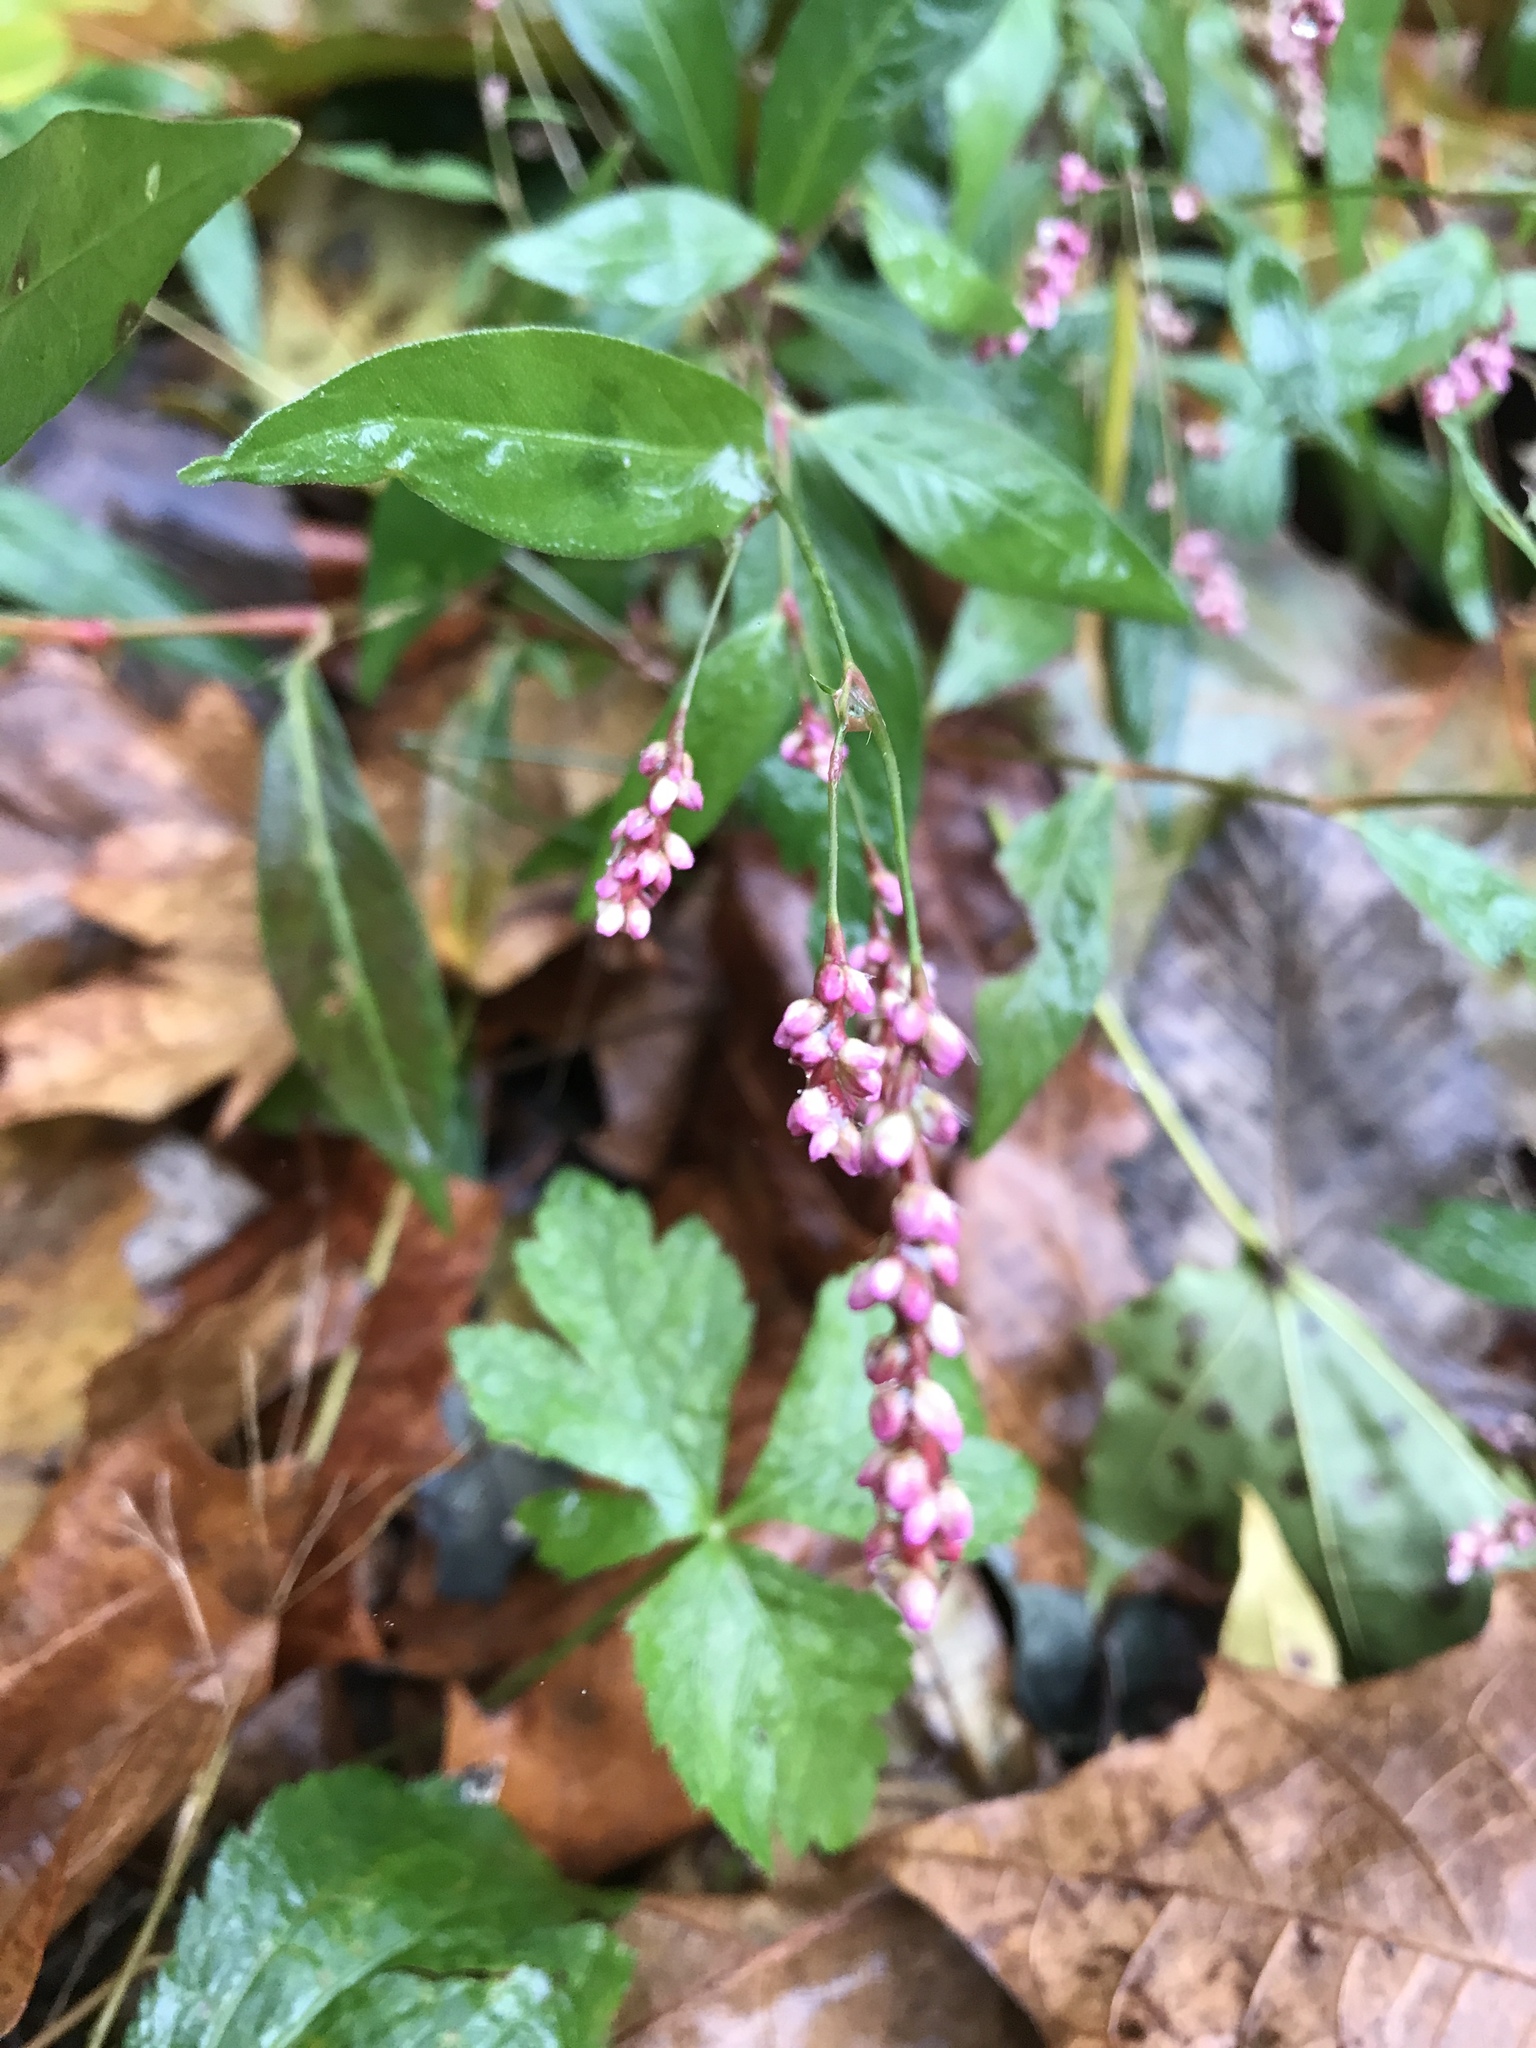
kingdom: Plantae
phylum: Tracheophyta
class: Magnoliopsida
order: Caryophyllales
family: Polygonaceae
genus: Persicaria
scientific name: Persicaria longiseta
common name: Bristly lady's-thumb
